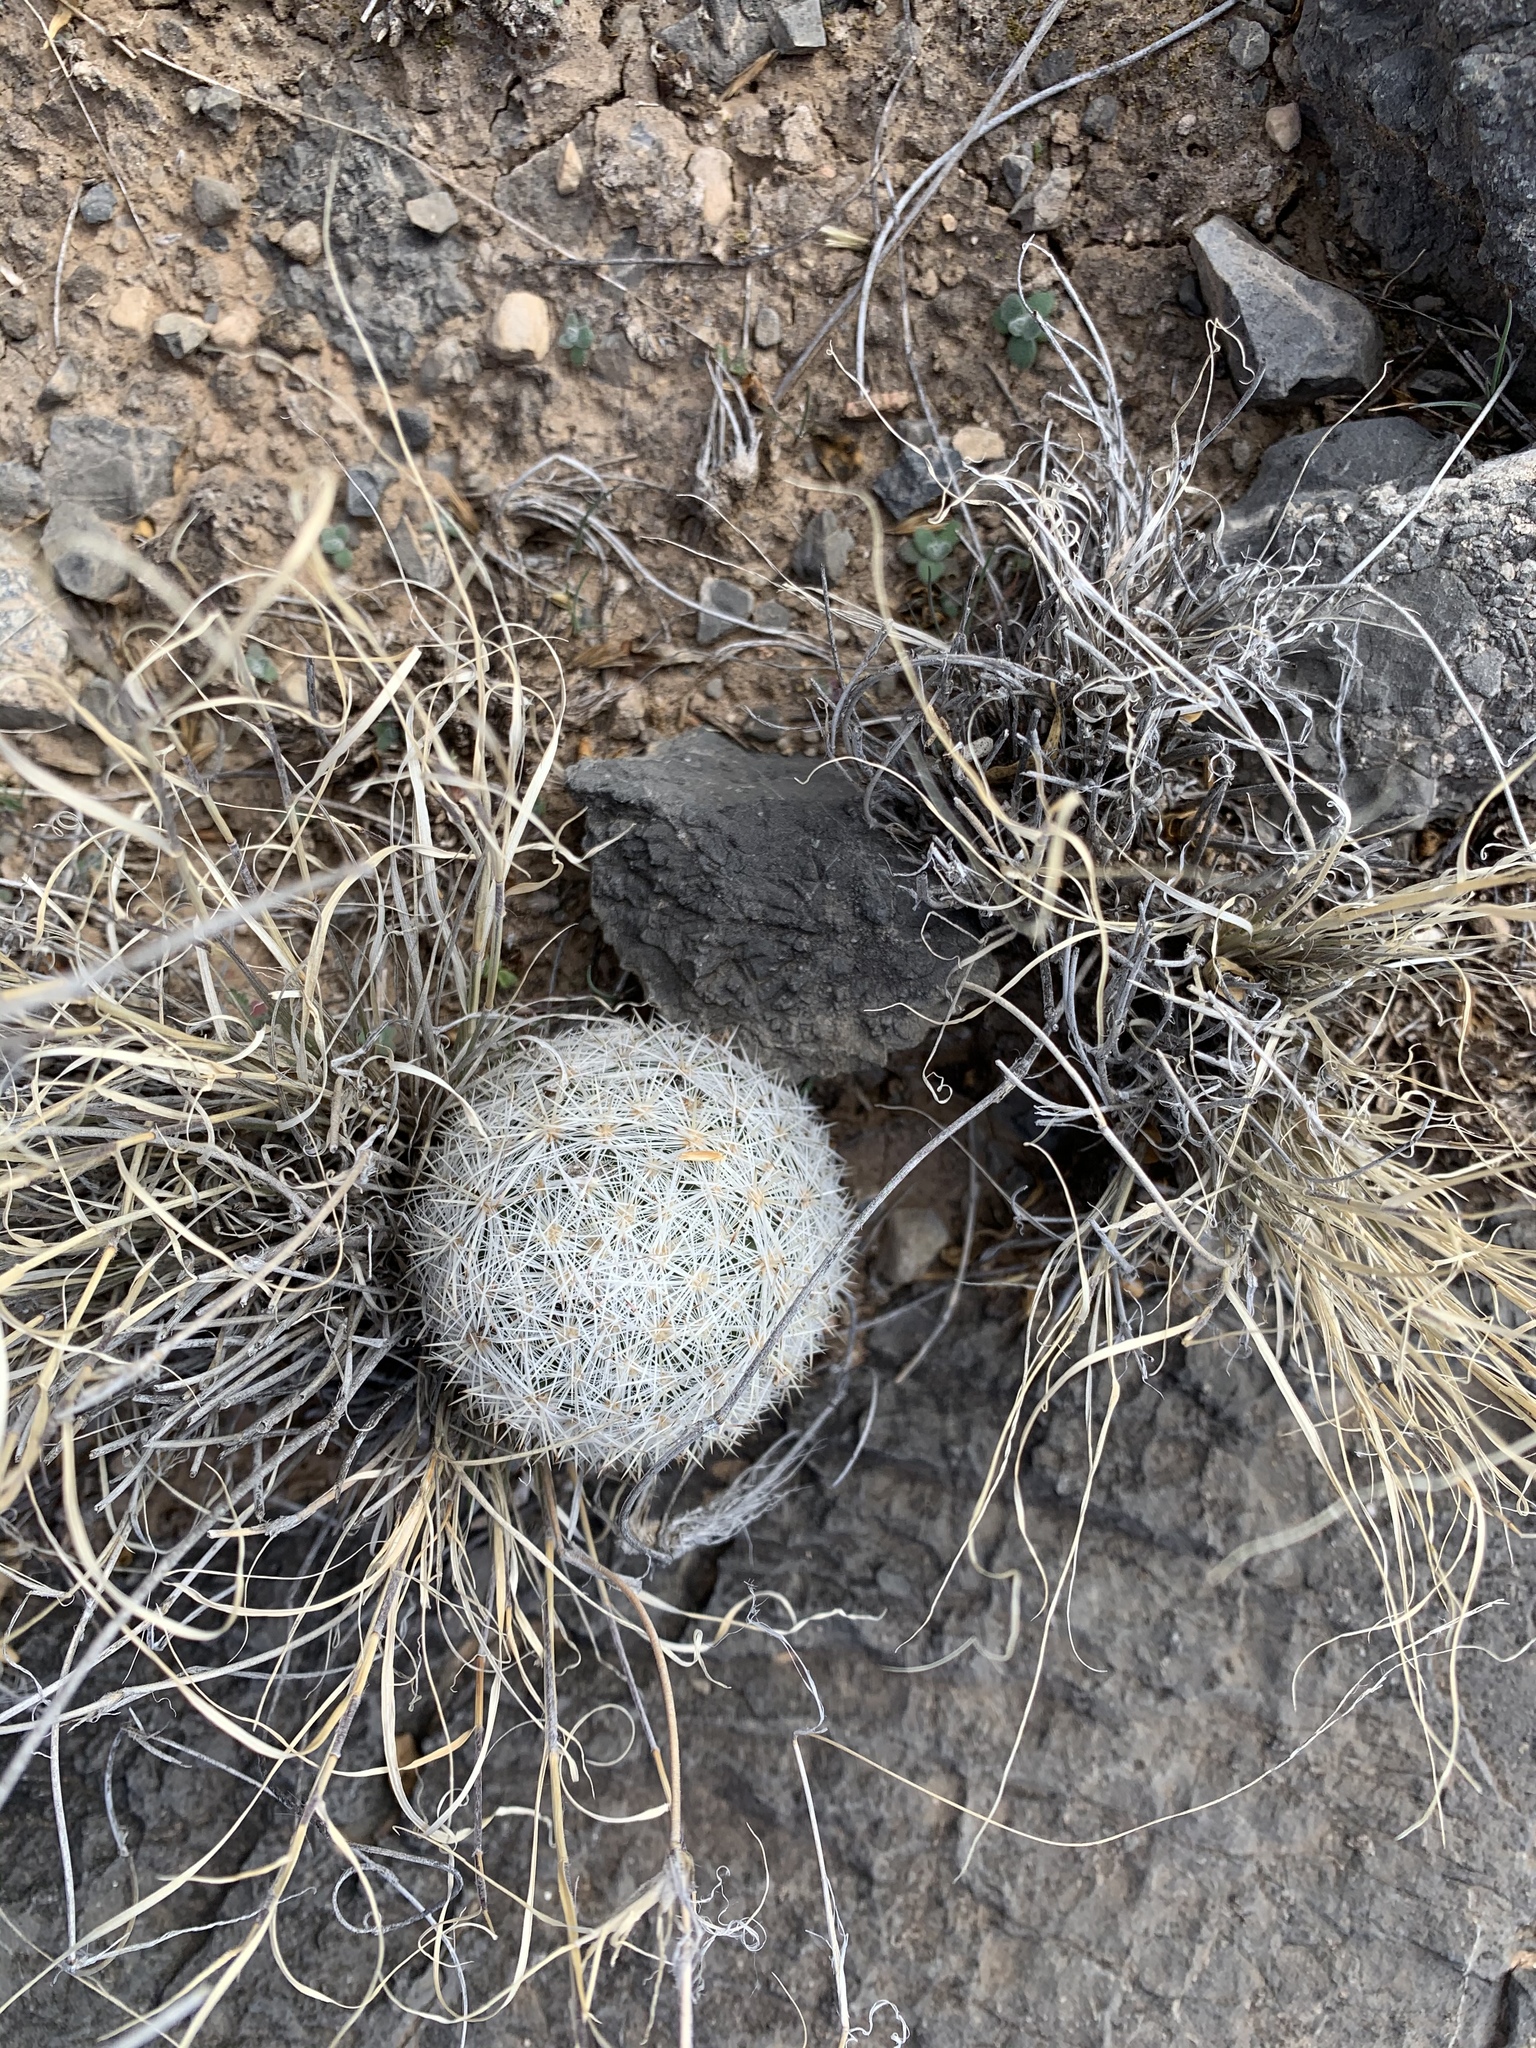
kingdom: Plantae
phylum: Tracheophyta
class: Magnoliopsida
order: Caryophyllales
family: Cactaceae
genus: Pelecyphora
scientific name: Pelecyphora sneedii
